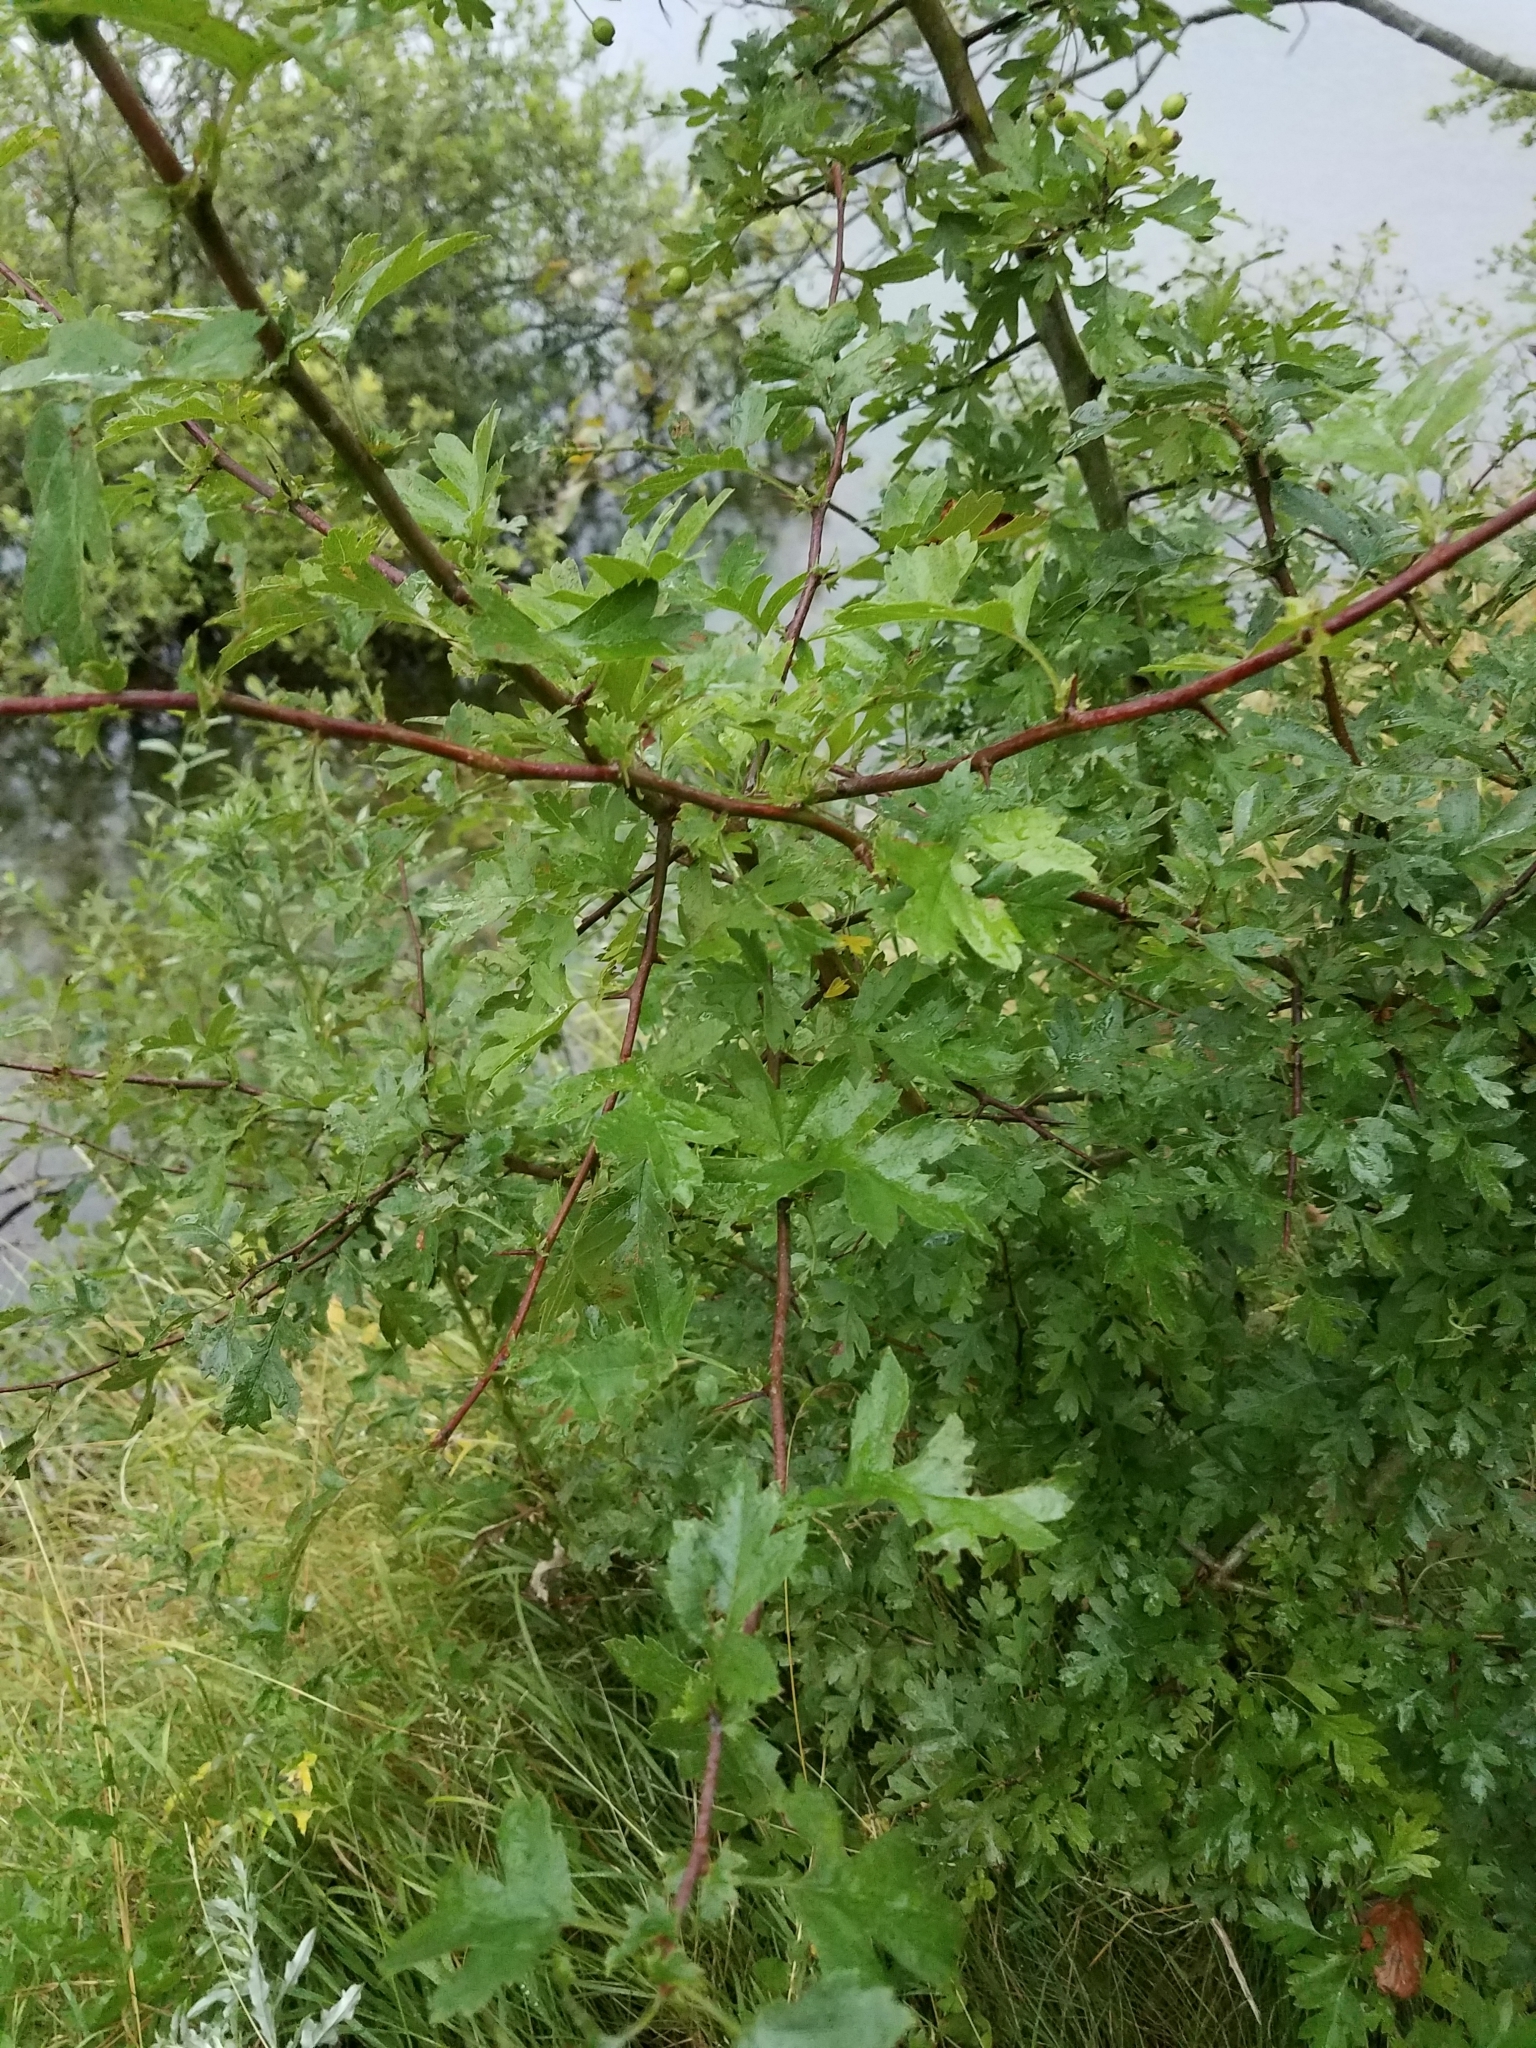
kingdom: Plantae
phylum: Tracheophyta
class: Magnoliopsida
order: Rosales
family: Rosaceae
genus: Crataegus
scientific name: Crataegus monogyna
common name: Hawthorn
